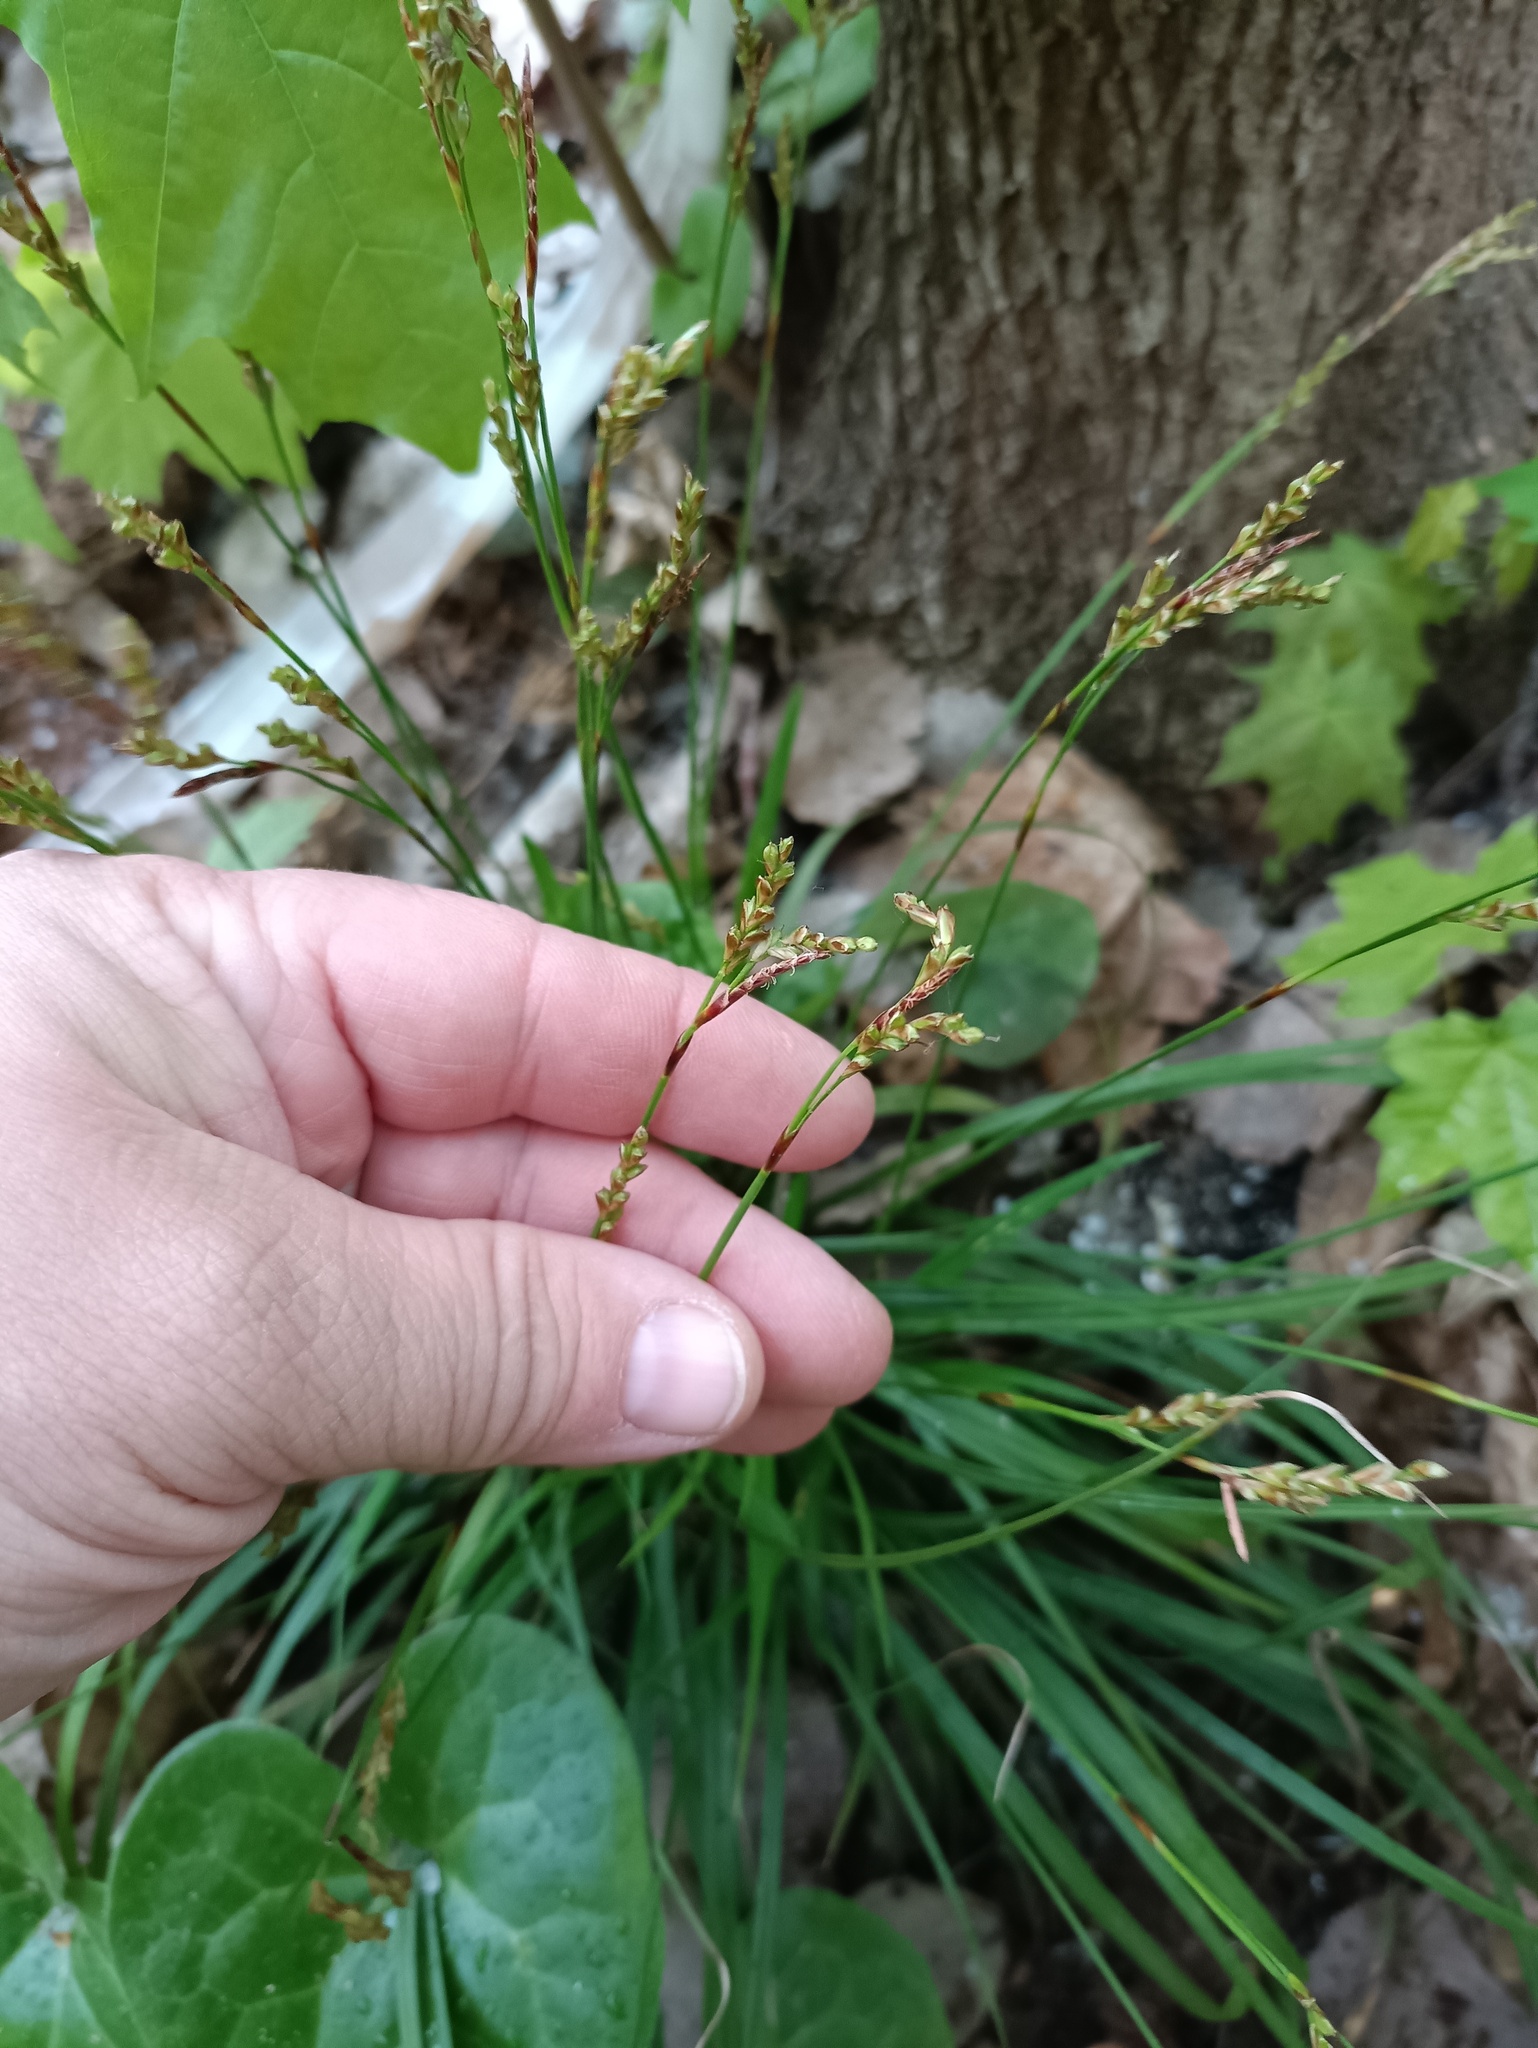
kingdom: Plantae
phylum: Tracheophyta
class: Liliopsida
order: Poales
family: Cyperaceae
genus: Carex
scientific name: Carex digitata
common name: Fingered sedge
